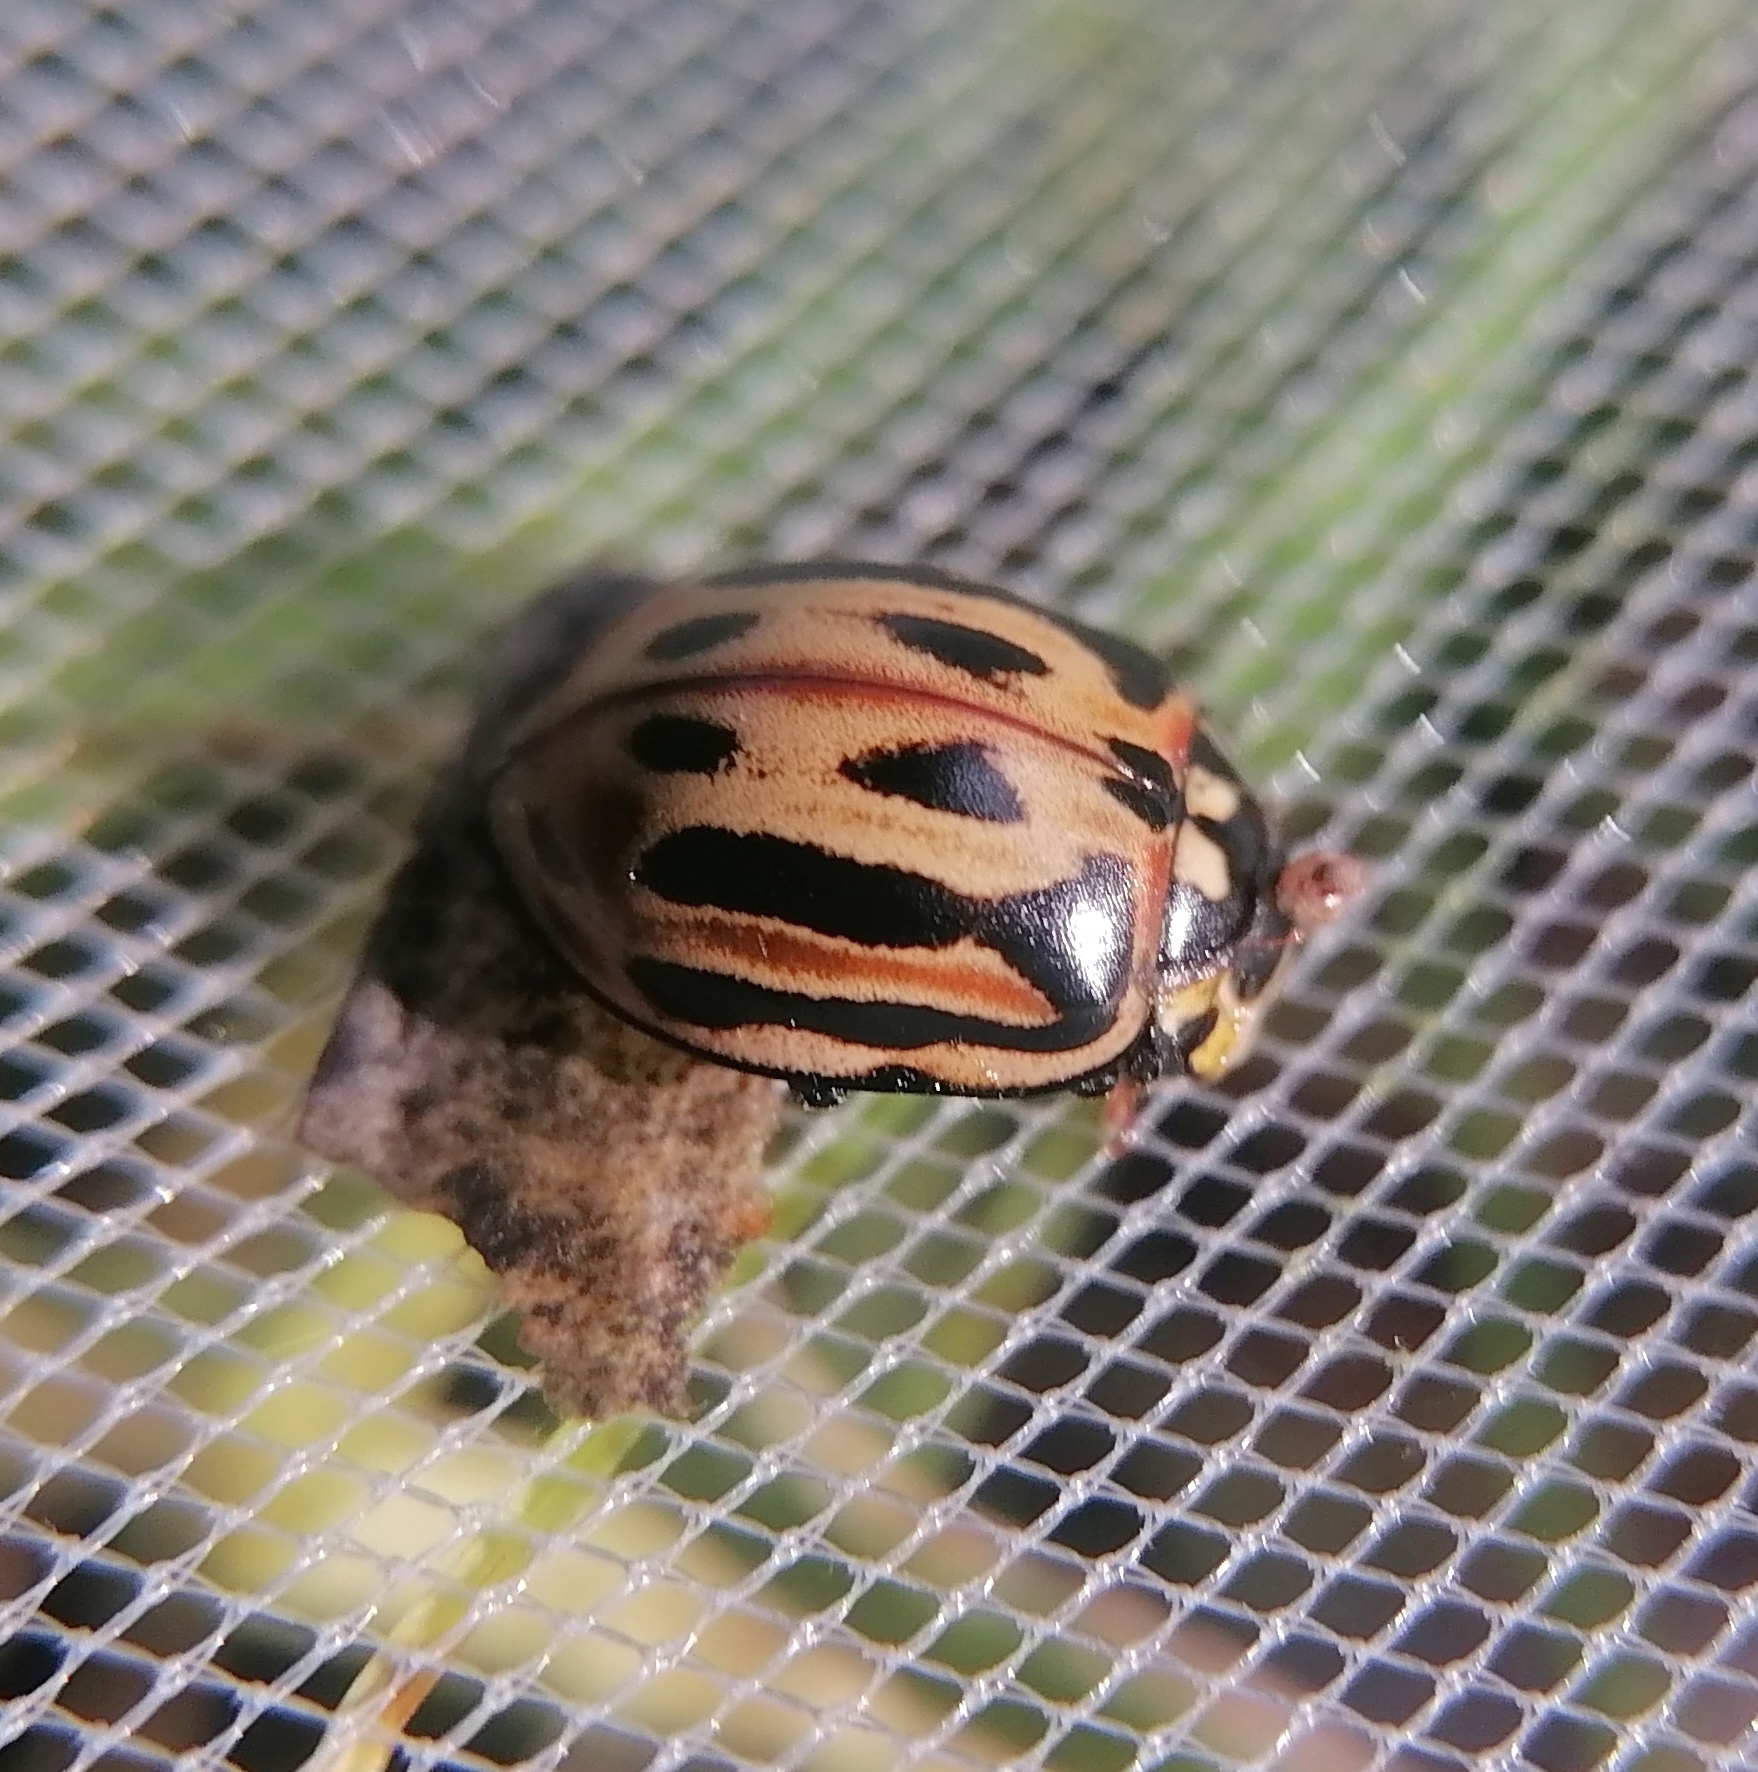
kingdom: Animalia
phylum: Arthropoda
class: Insecta
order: Coleoptera
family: Coccinellidae
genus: Anatis
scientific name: Anatis ocellata
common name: Eyed ladybird
